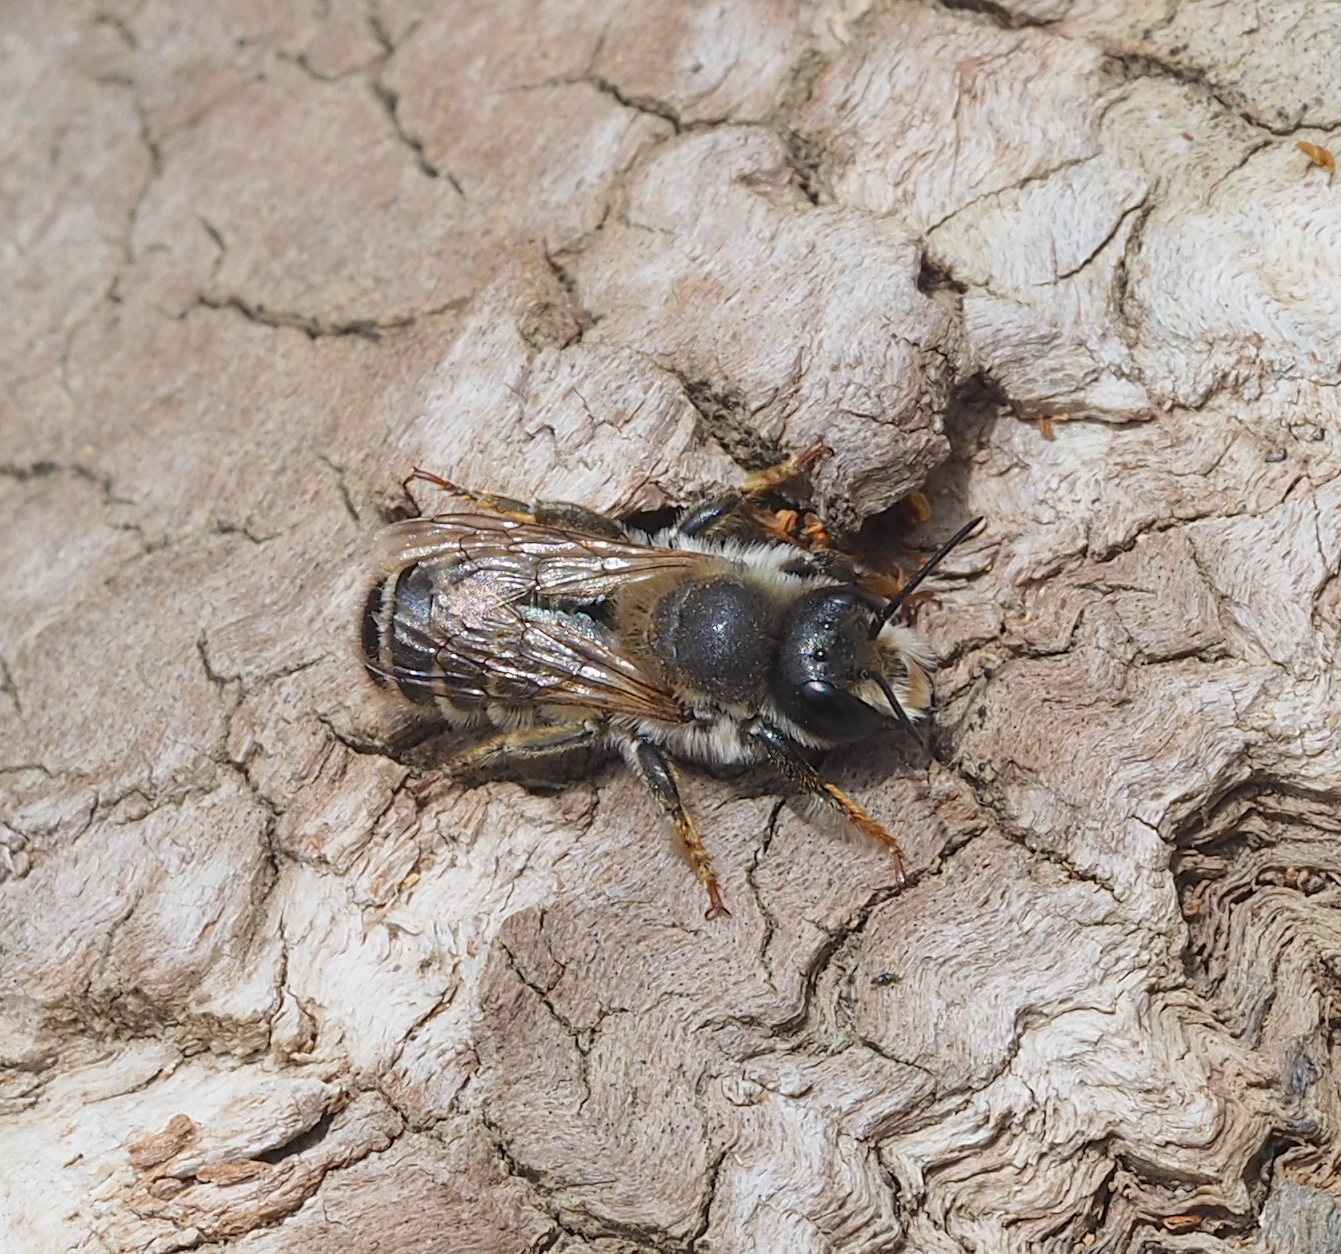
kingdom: Animalia
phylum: Arthropoda
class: Insecta
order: Hymenoptera
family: Megachilidae
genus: Megachile
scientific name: Megachile ericetorum
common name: Leafcutter bee
